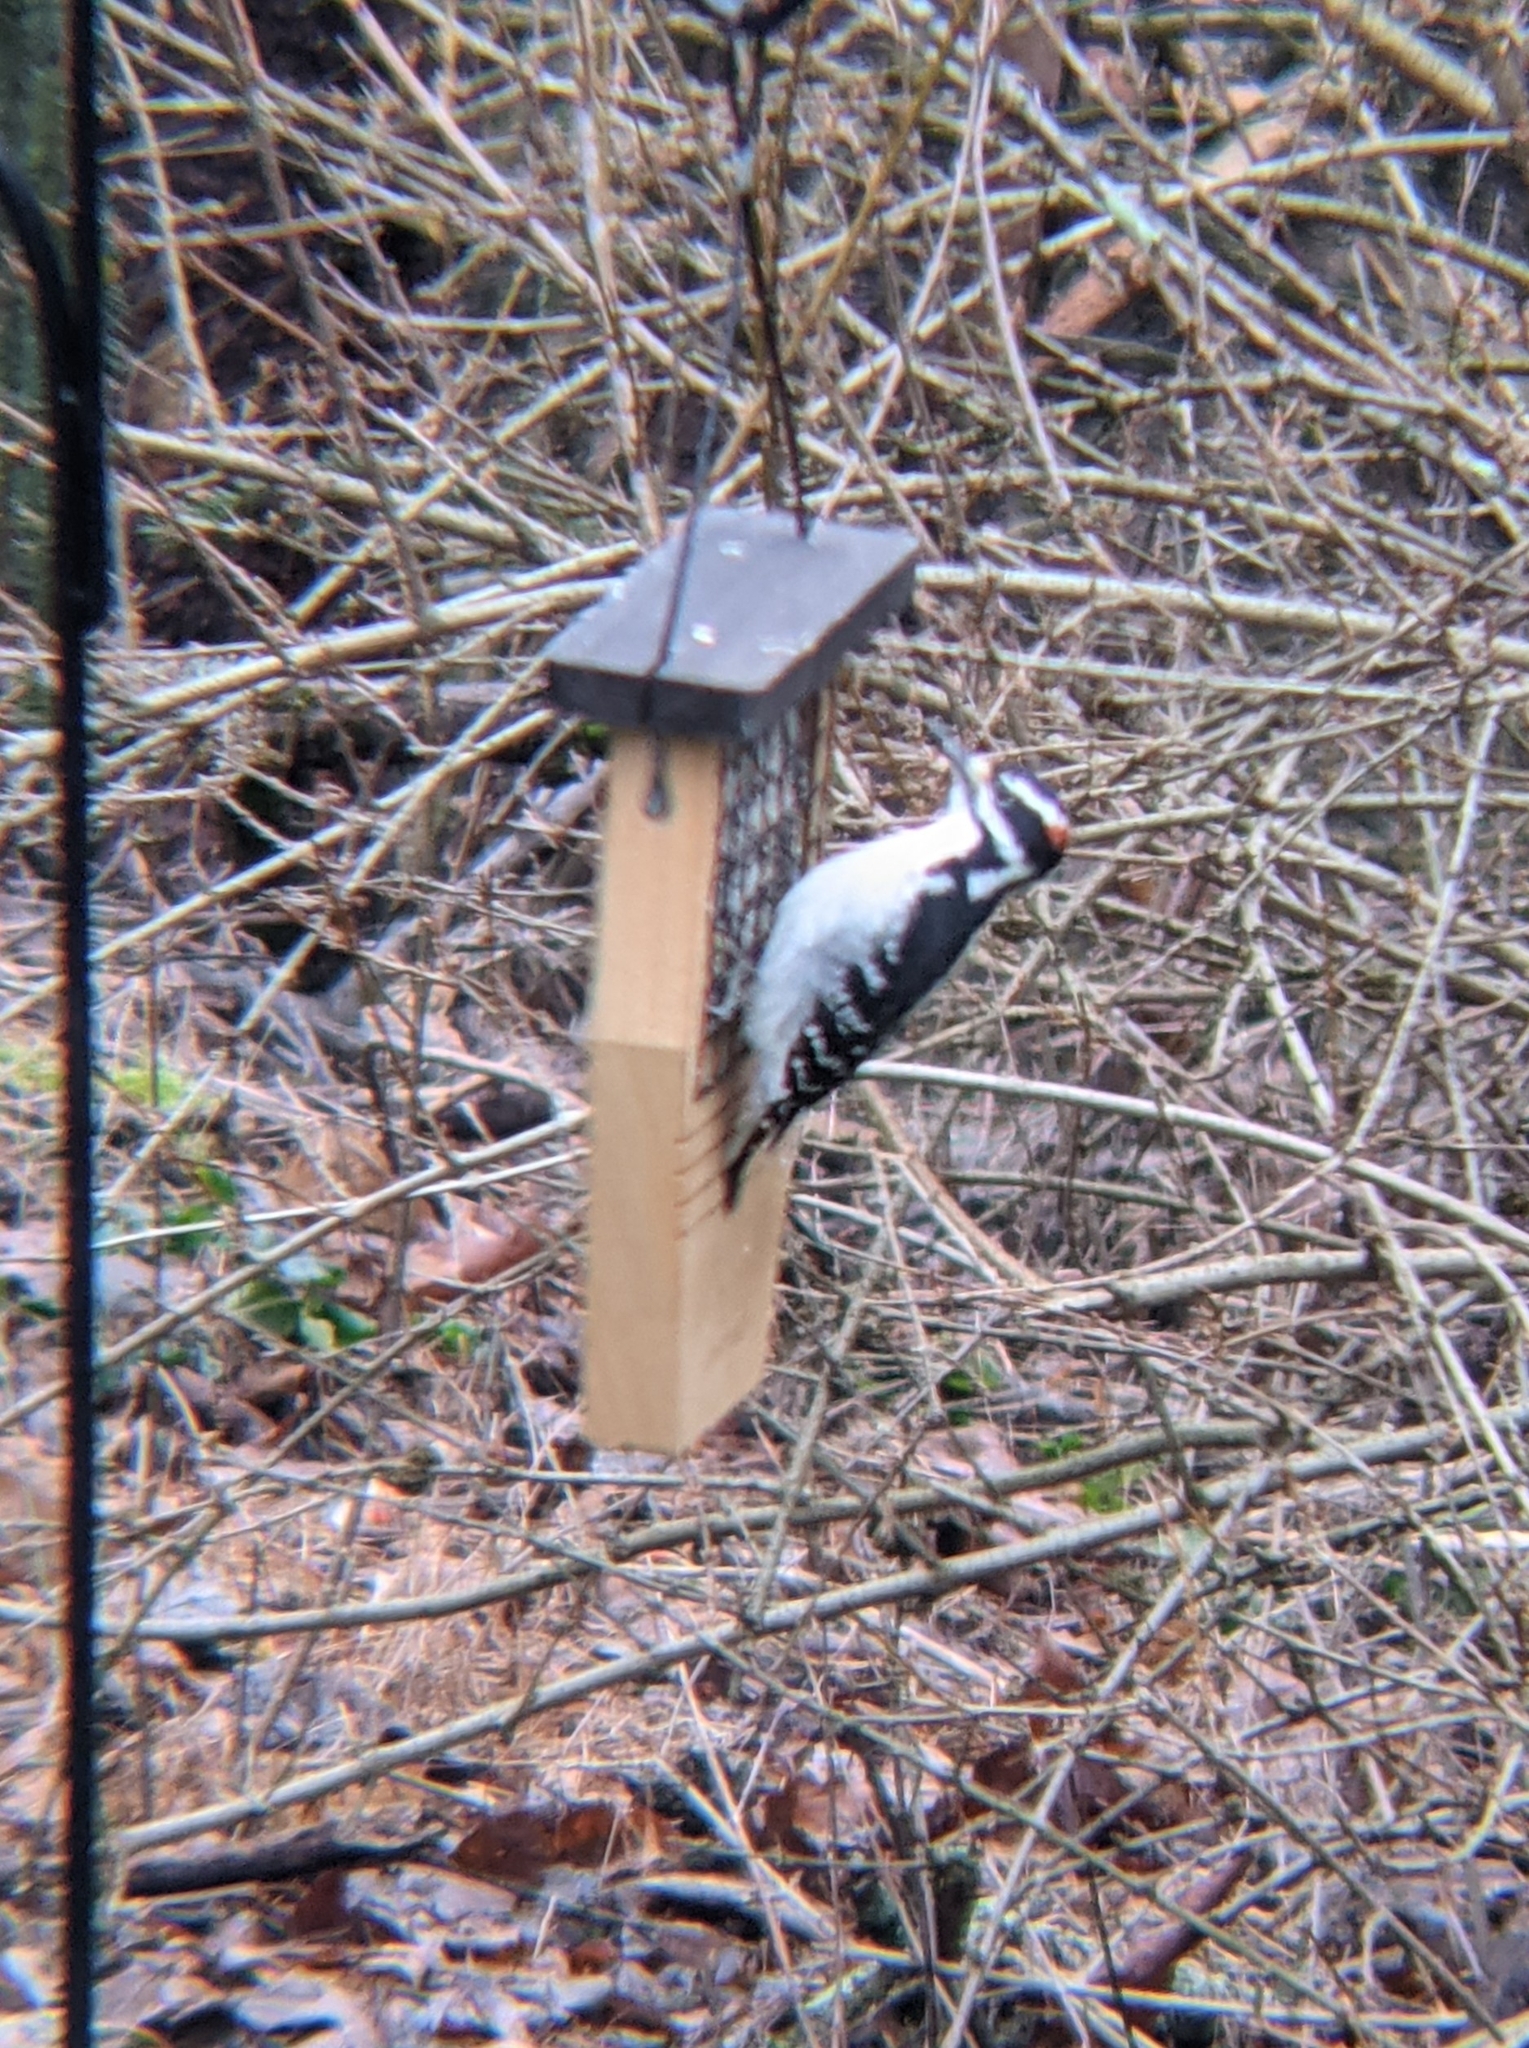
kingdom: Animalia
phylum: Chordata
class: Aves
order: Piciformes
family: Picidae
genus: Leuconotopicus
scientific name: Leuconotopicus villosus
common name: Hairy woodpecker
